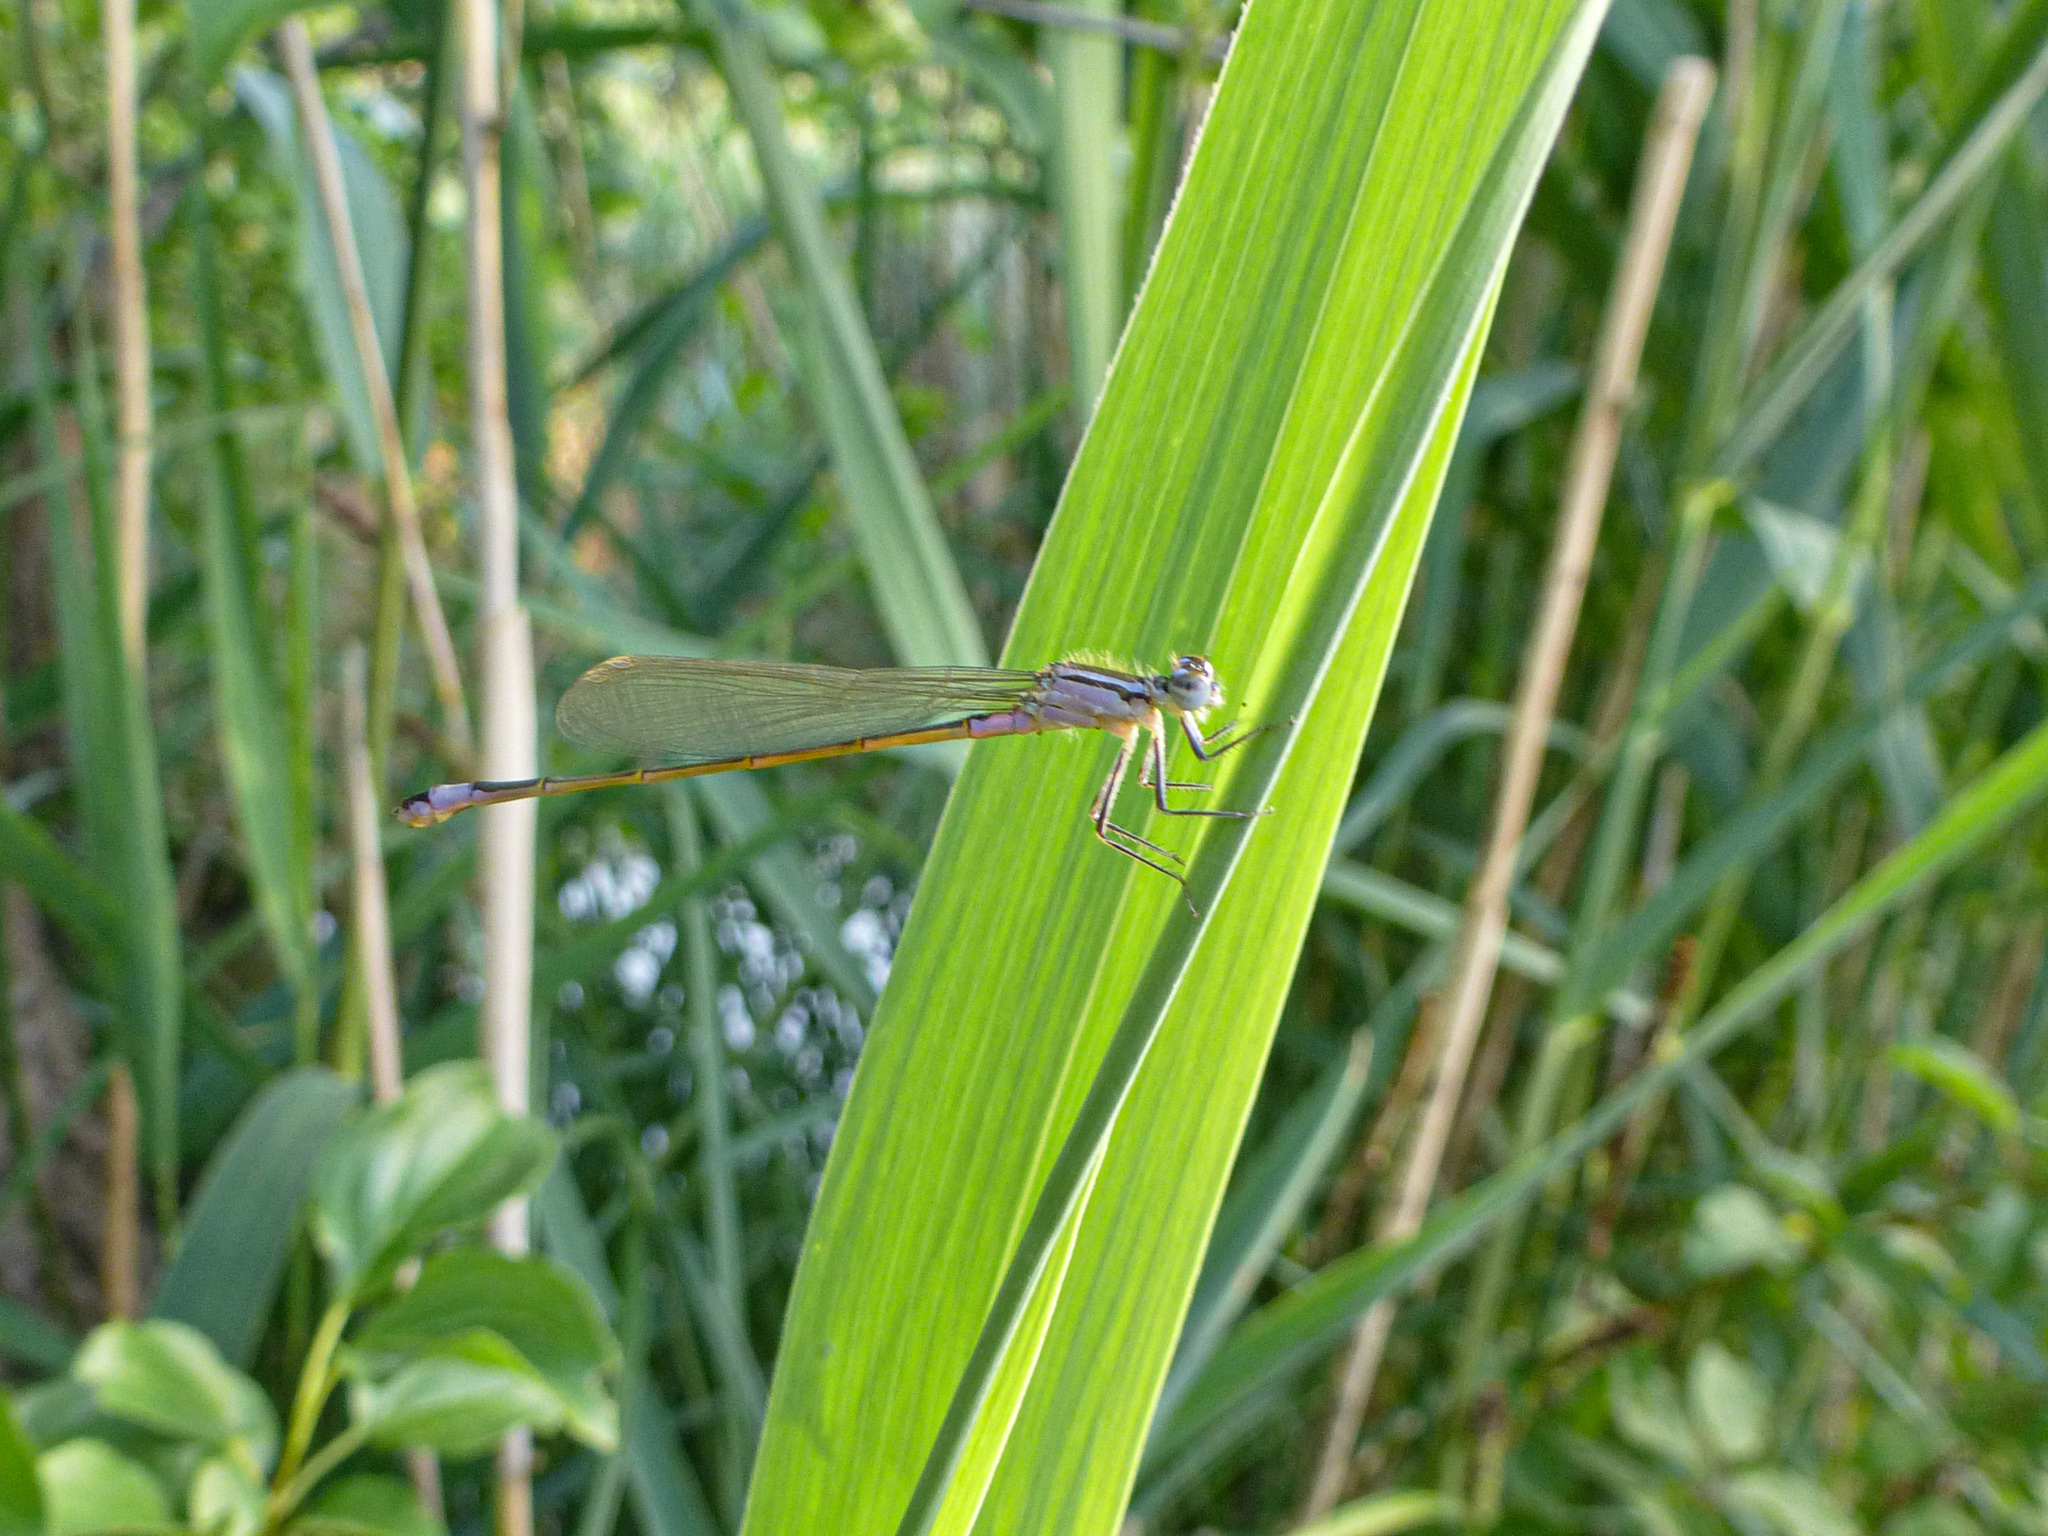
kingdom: Animalia
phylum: Arthropoda
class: Insecta
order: Odonata
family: Coenagrionidae
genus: Ischnura
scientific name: Ischnura elegans
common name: Blue-tailed damselfly
